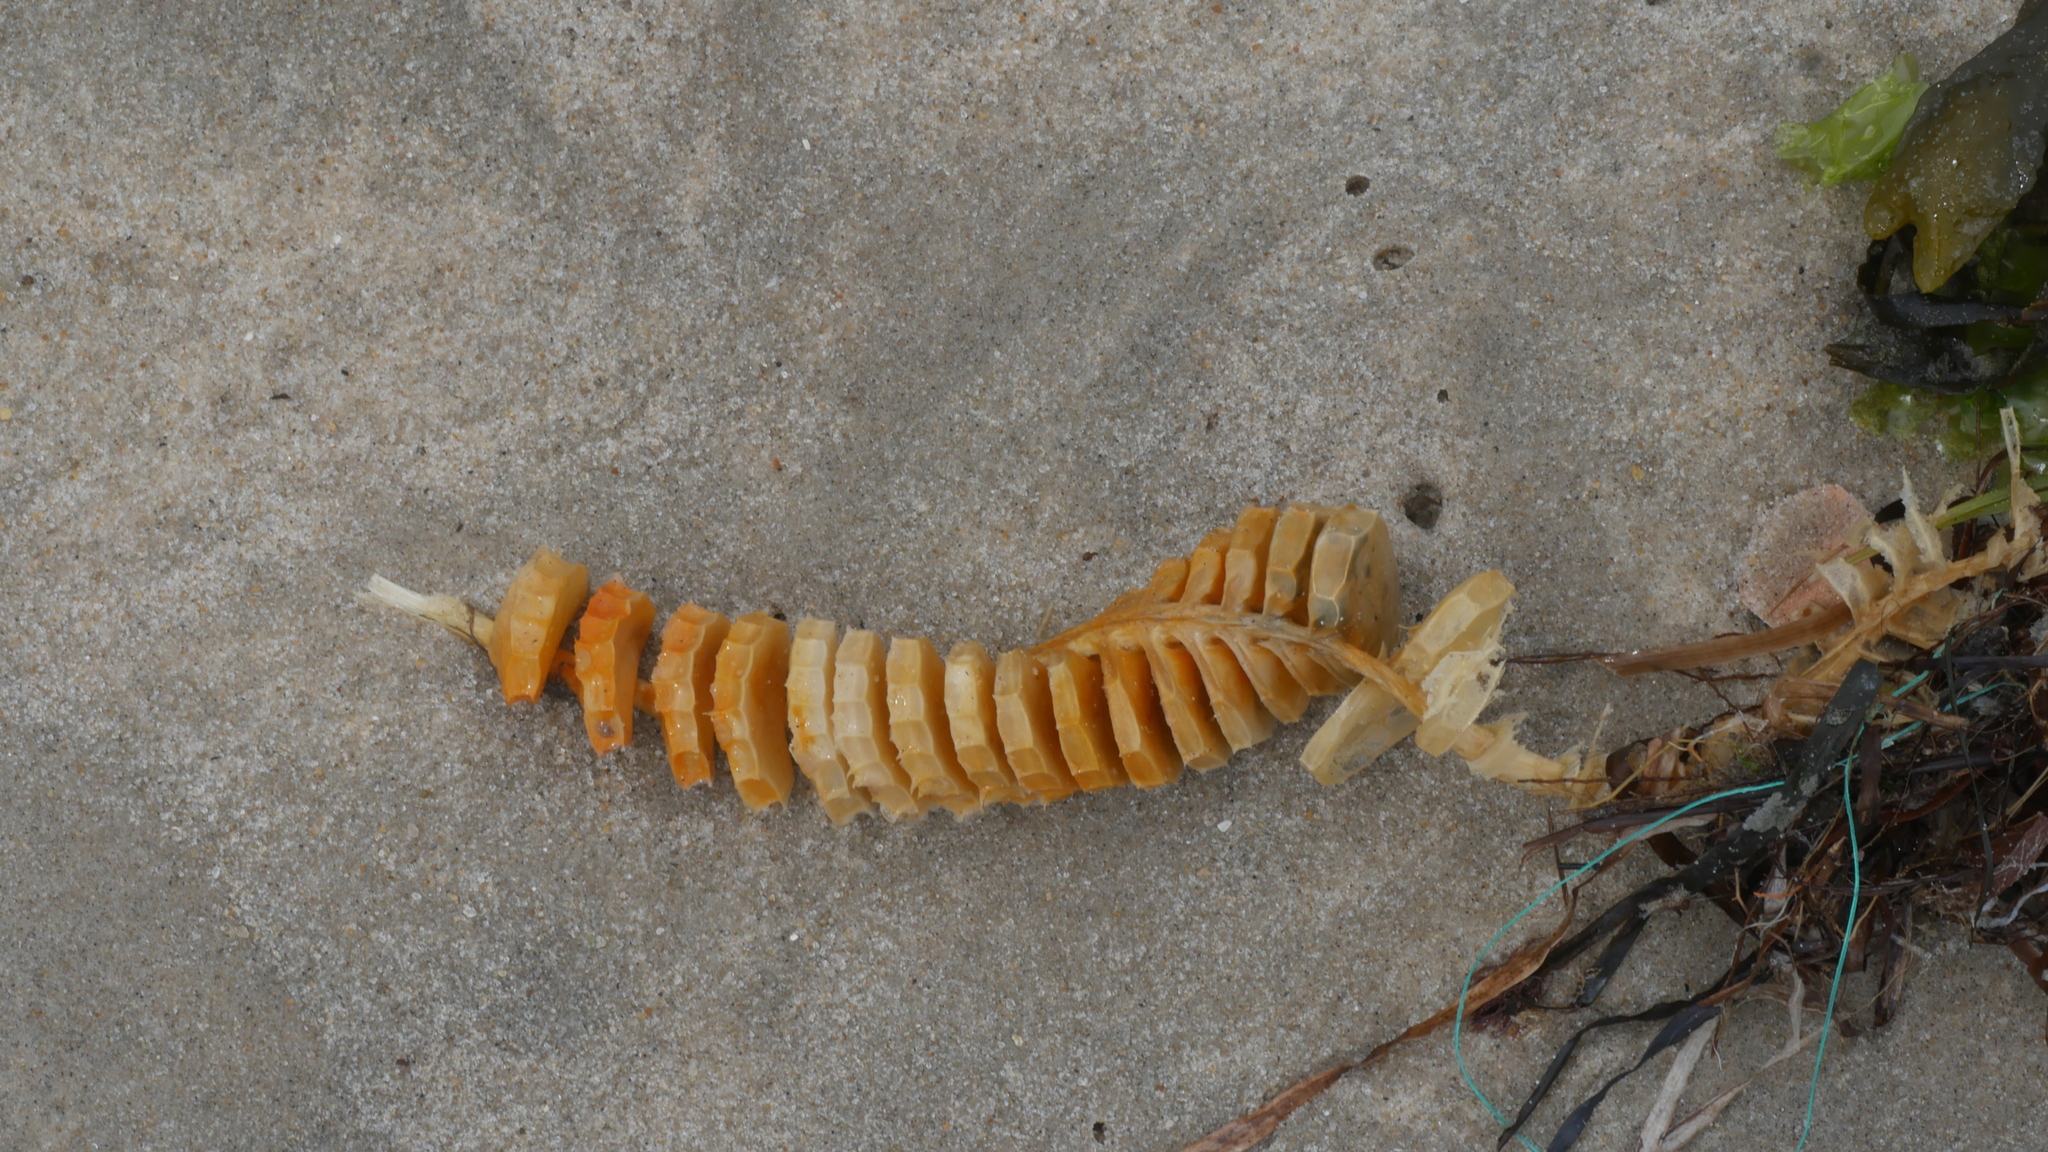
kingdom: Animalia
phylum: Mollusca
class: Gastropoda
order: Neogastropoda
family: Busyconidae
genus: Busycon
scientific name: Busycon carica
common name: Knobbed whelk
